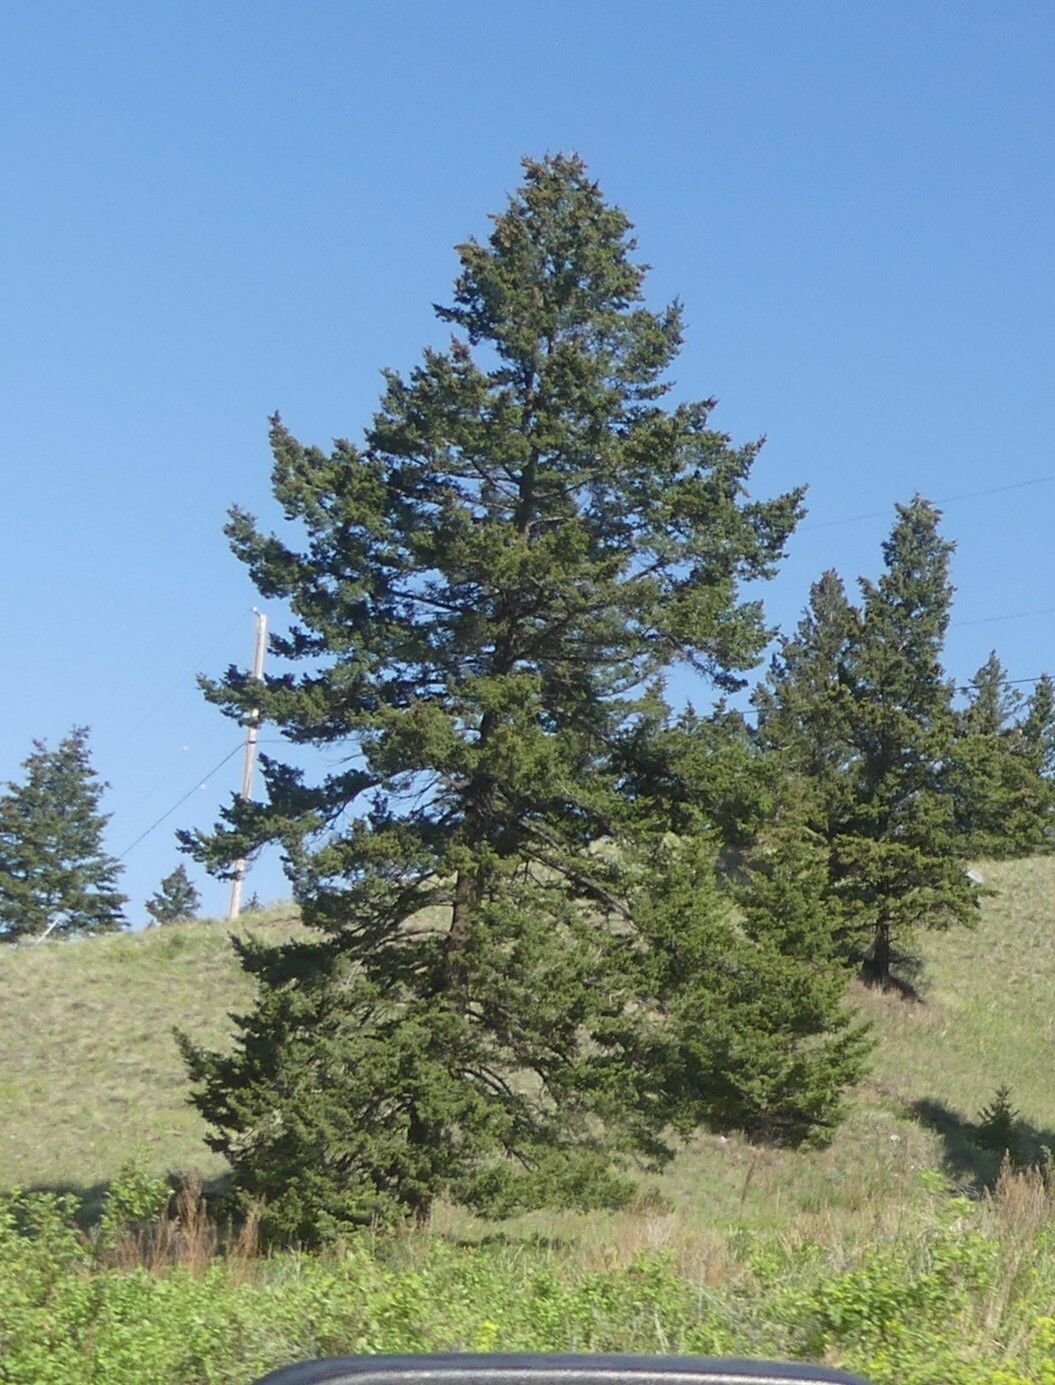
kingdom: Plantae
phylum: Tracheophyta
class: Pinopsida
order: Pinales
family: Pinaceae
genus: Pseudotsuga
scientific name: Pseudotsuga menziesii
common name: Douglas fir
